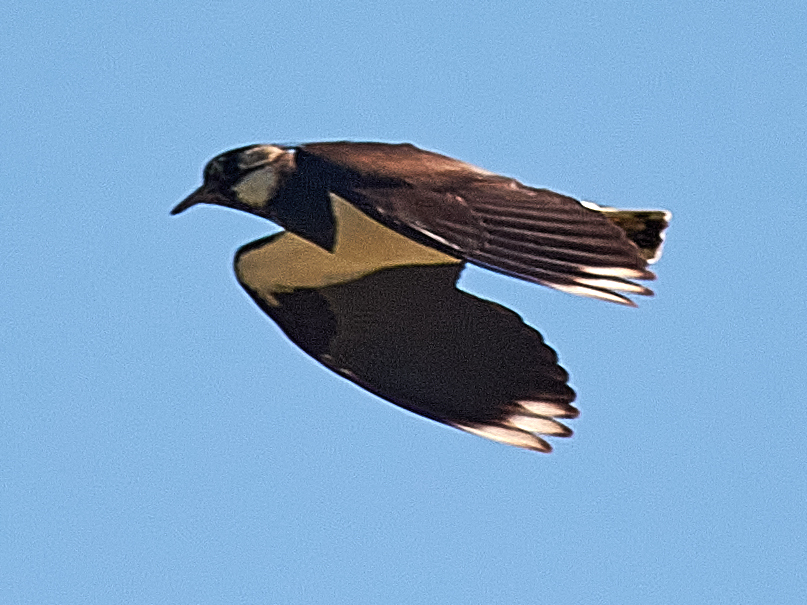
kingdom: Animalia
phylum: Chordata
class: Aves
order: Charadriiformes
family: Charadriidae
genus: Vanellus
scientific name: Vanellus vanellus
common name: Northern lapwing
